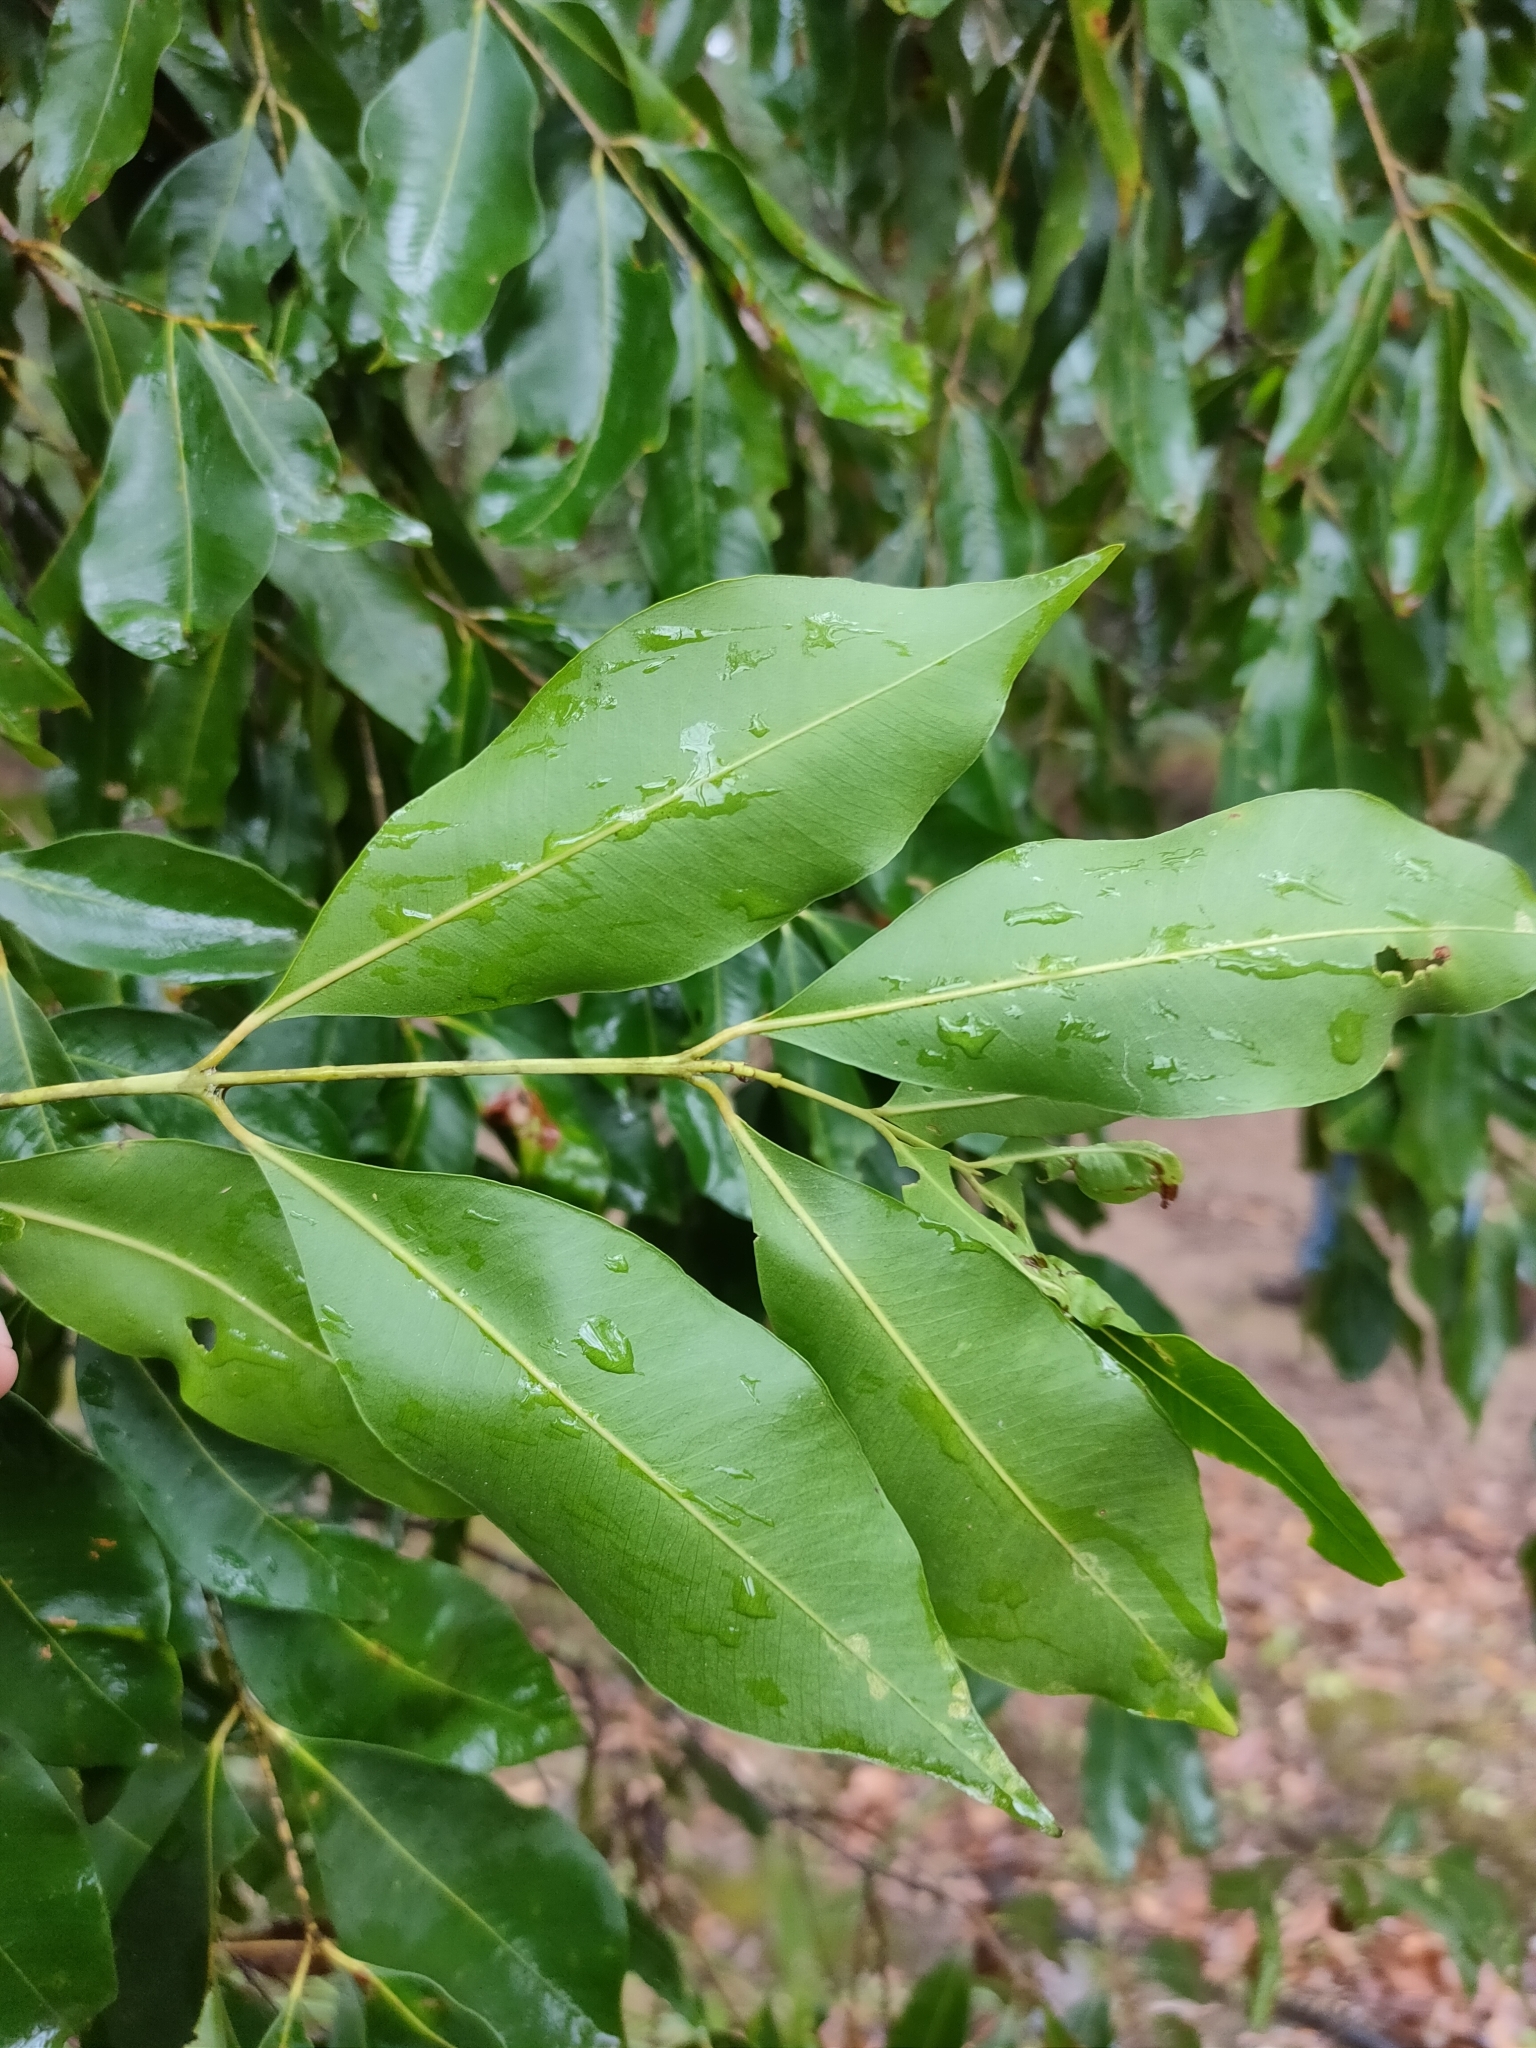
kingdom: Plantae
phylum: Tracheophyta
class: Magnoliopsida
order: Myrtales
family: Myrtaceae
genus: Syzygium
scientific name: Syzygium floribundum
